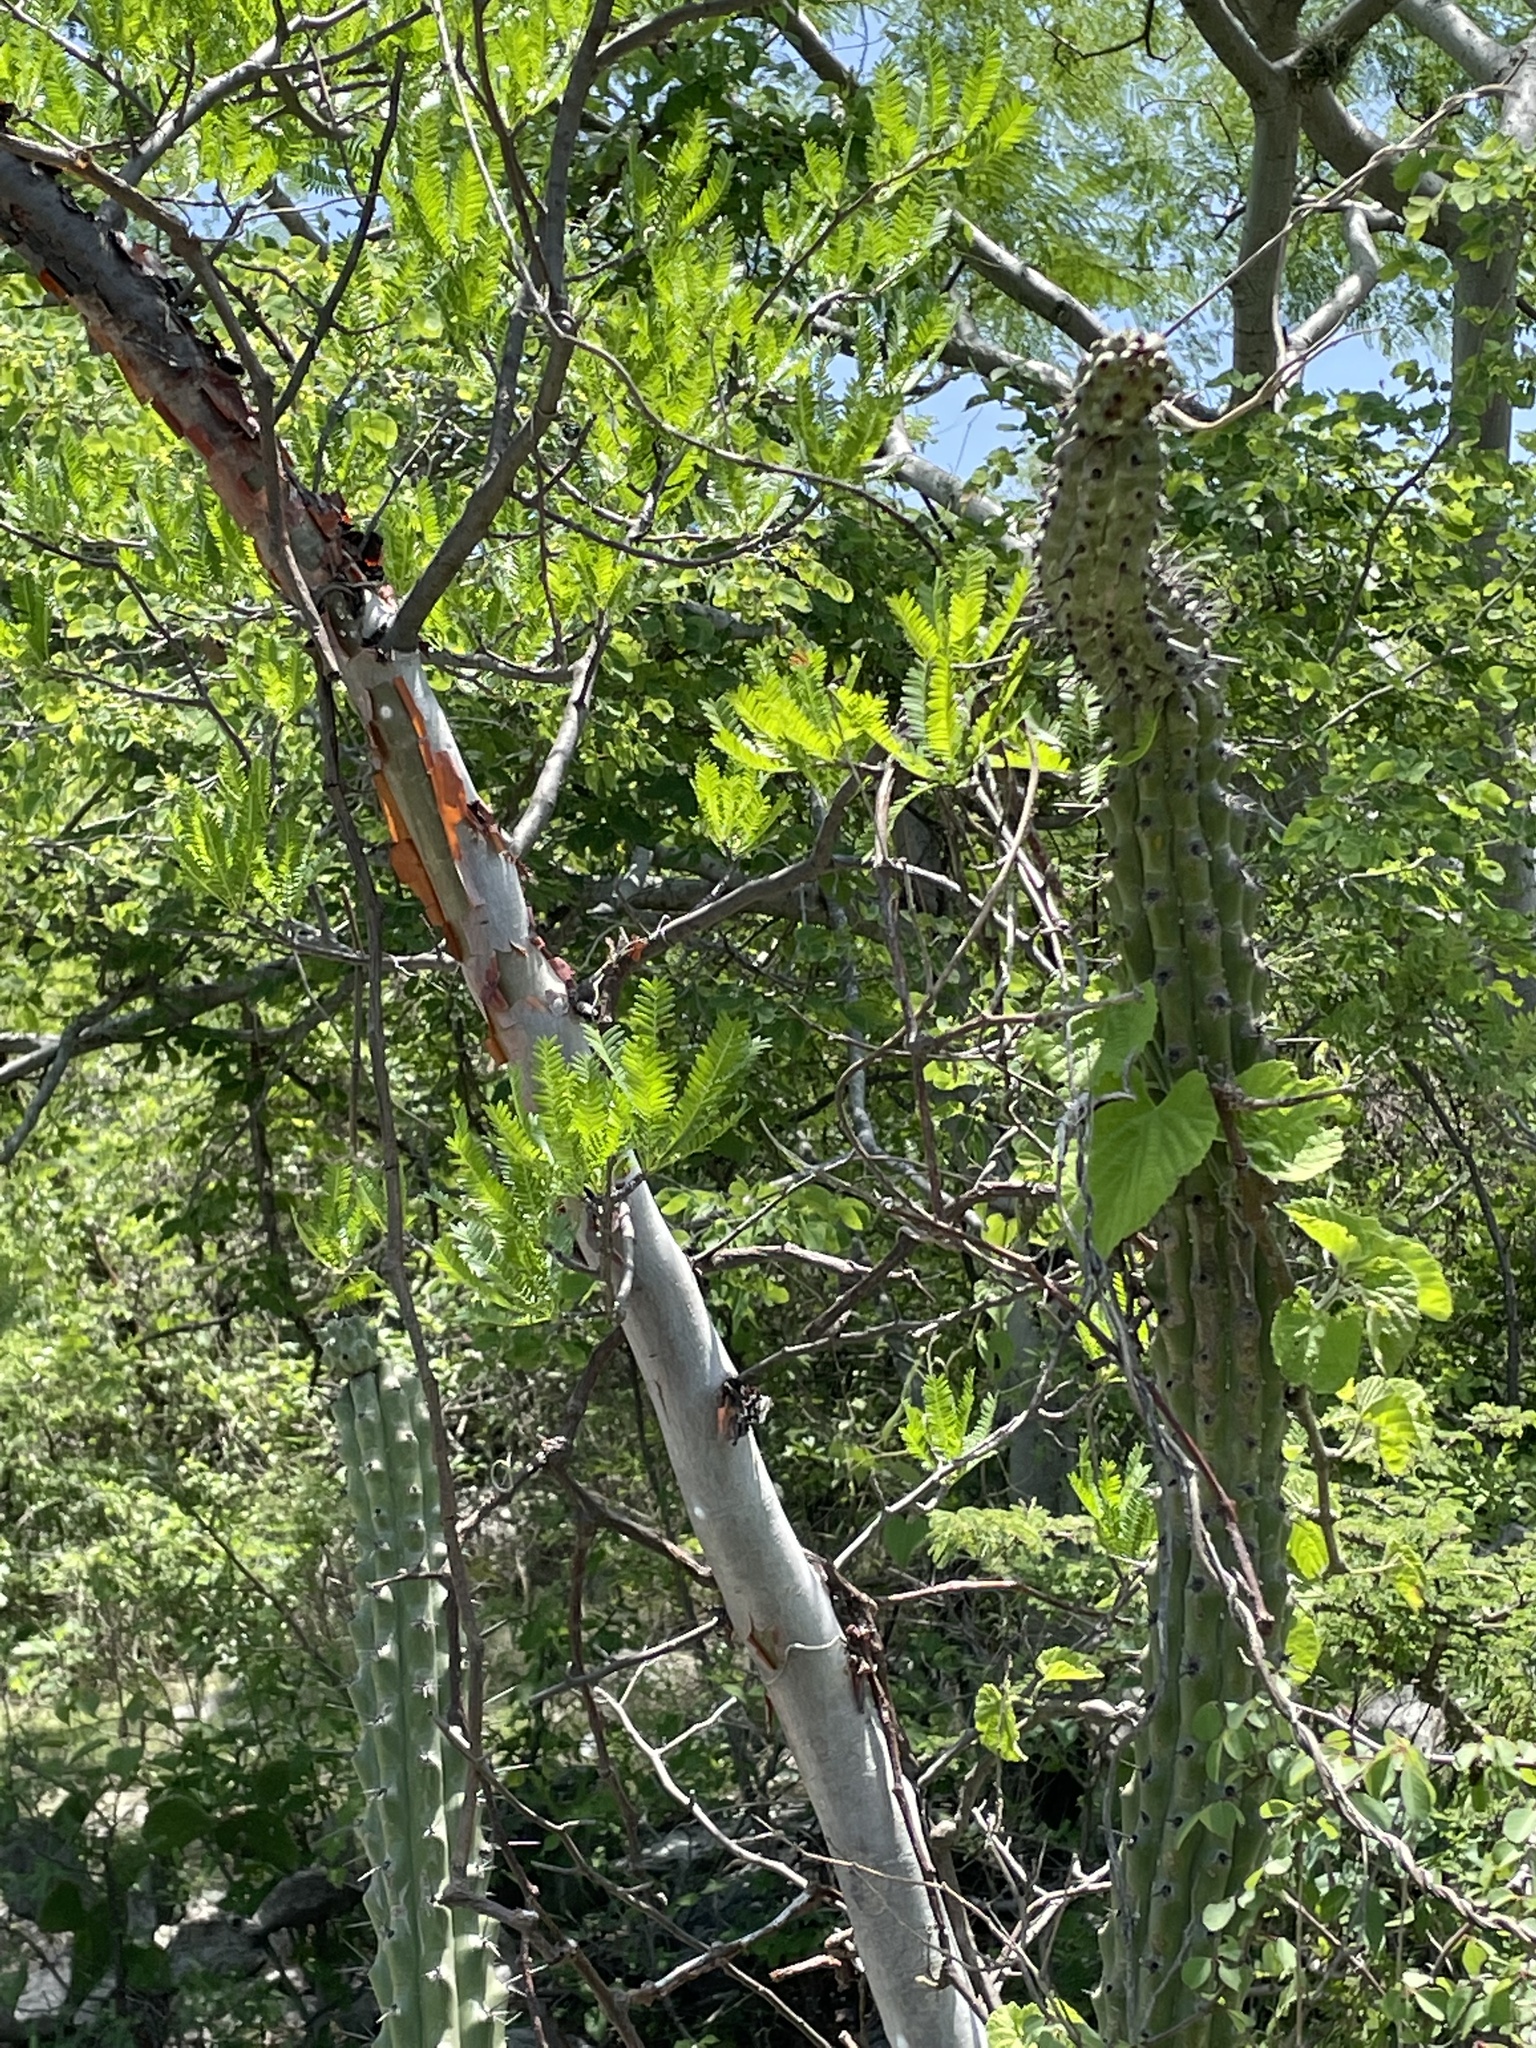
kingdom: Plantae
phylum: Tracheophyta
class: Magnoliopsida
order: Caryophyllales
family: Cactaceae
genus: Stenocereus
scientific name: Stenocereus beneckei
